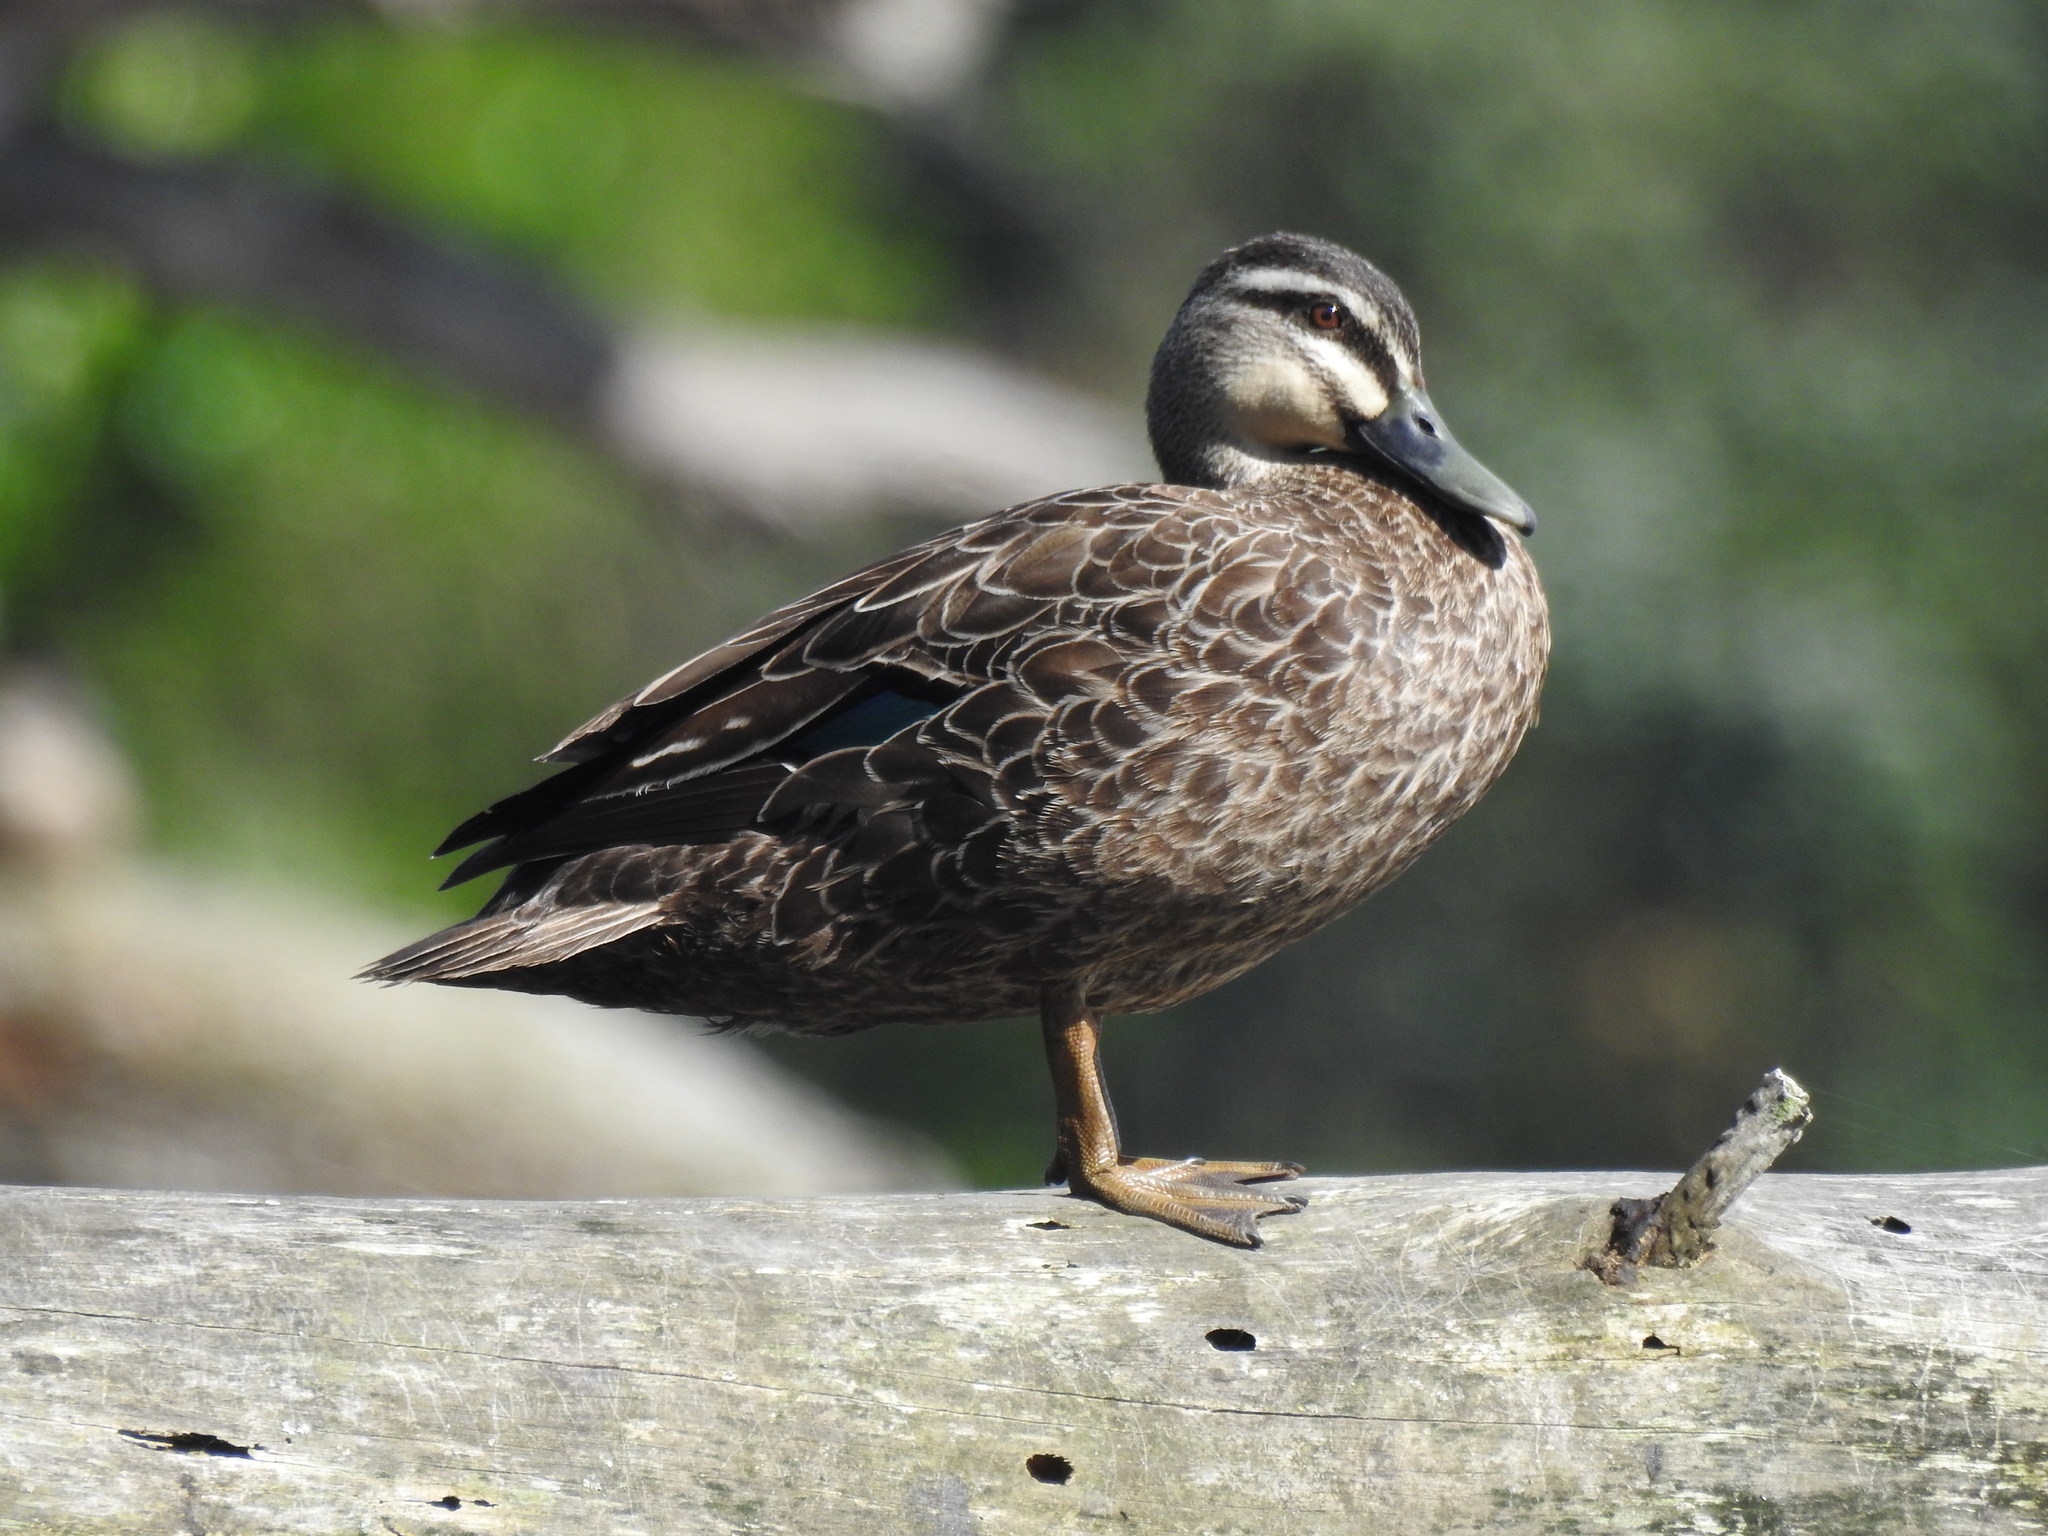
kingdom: Animalia
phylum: Chordata
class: Aves
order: Anseriformes
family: Anatidae
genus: Anas
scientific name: Anas
